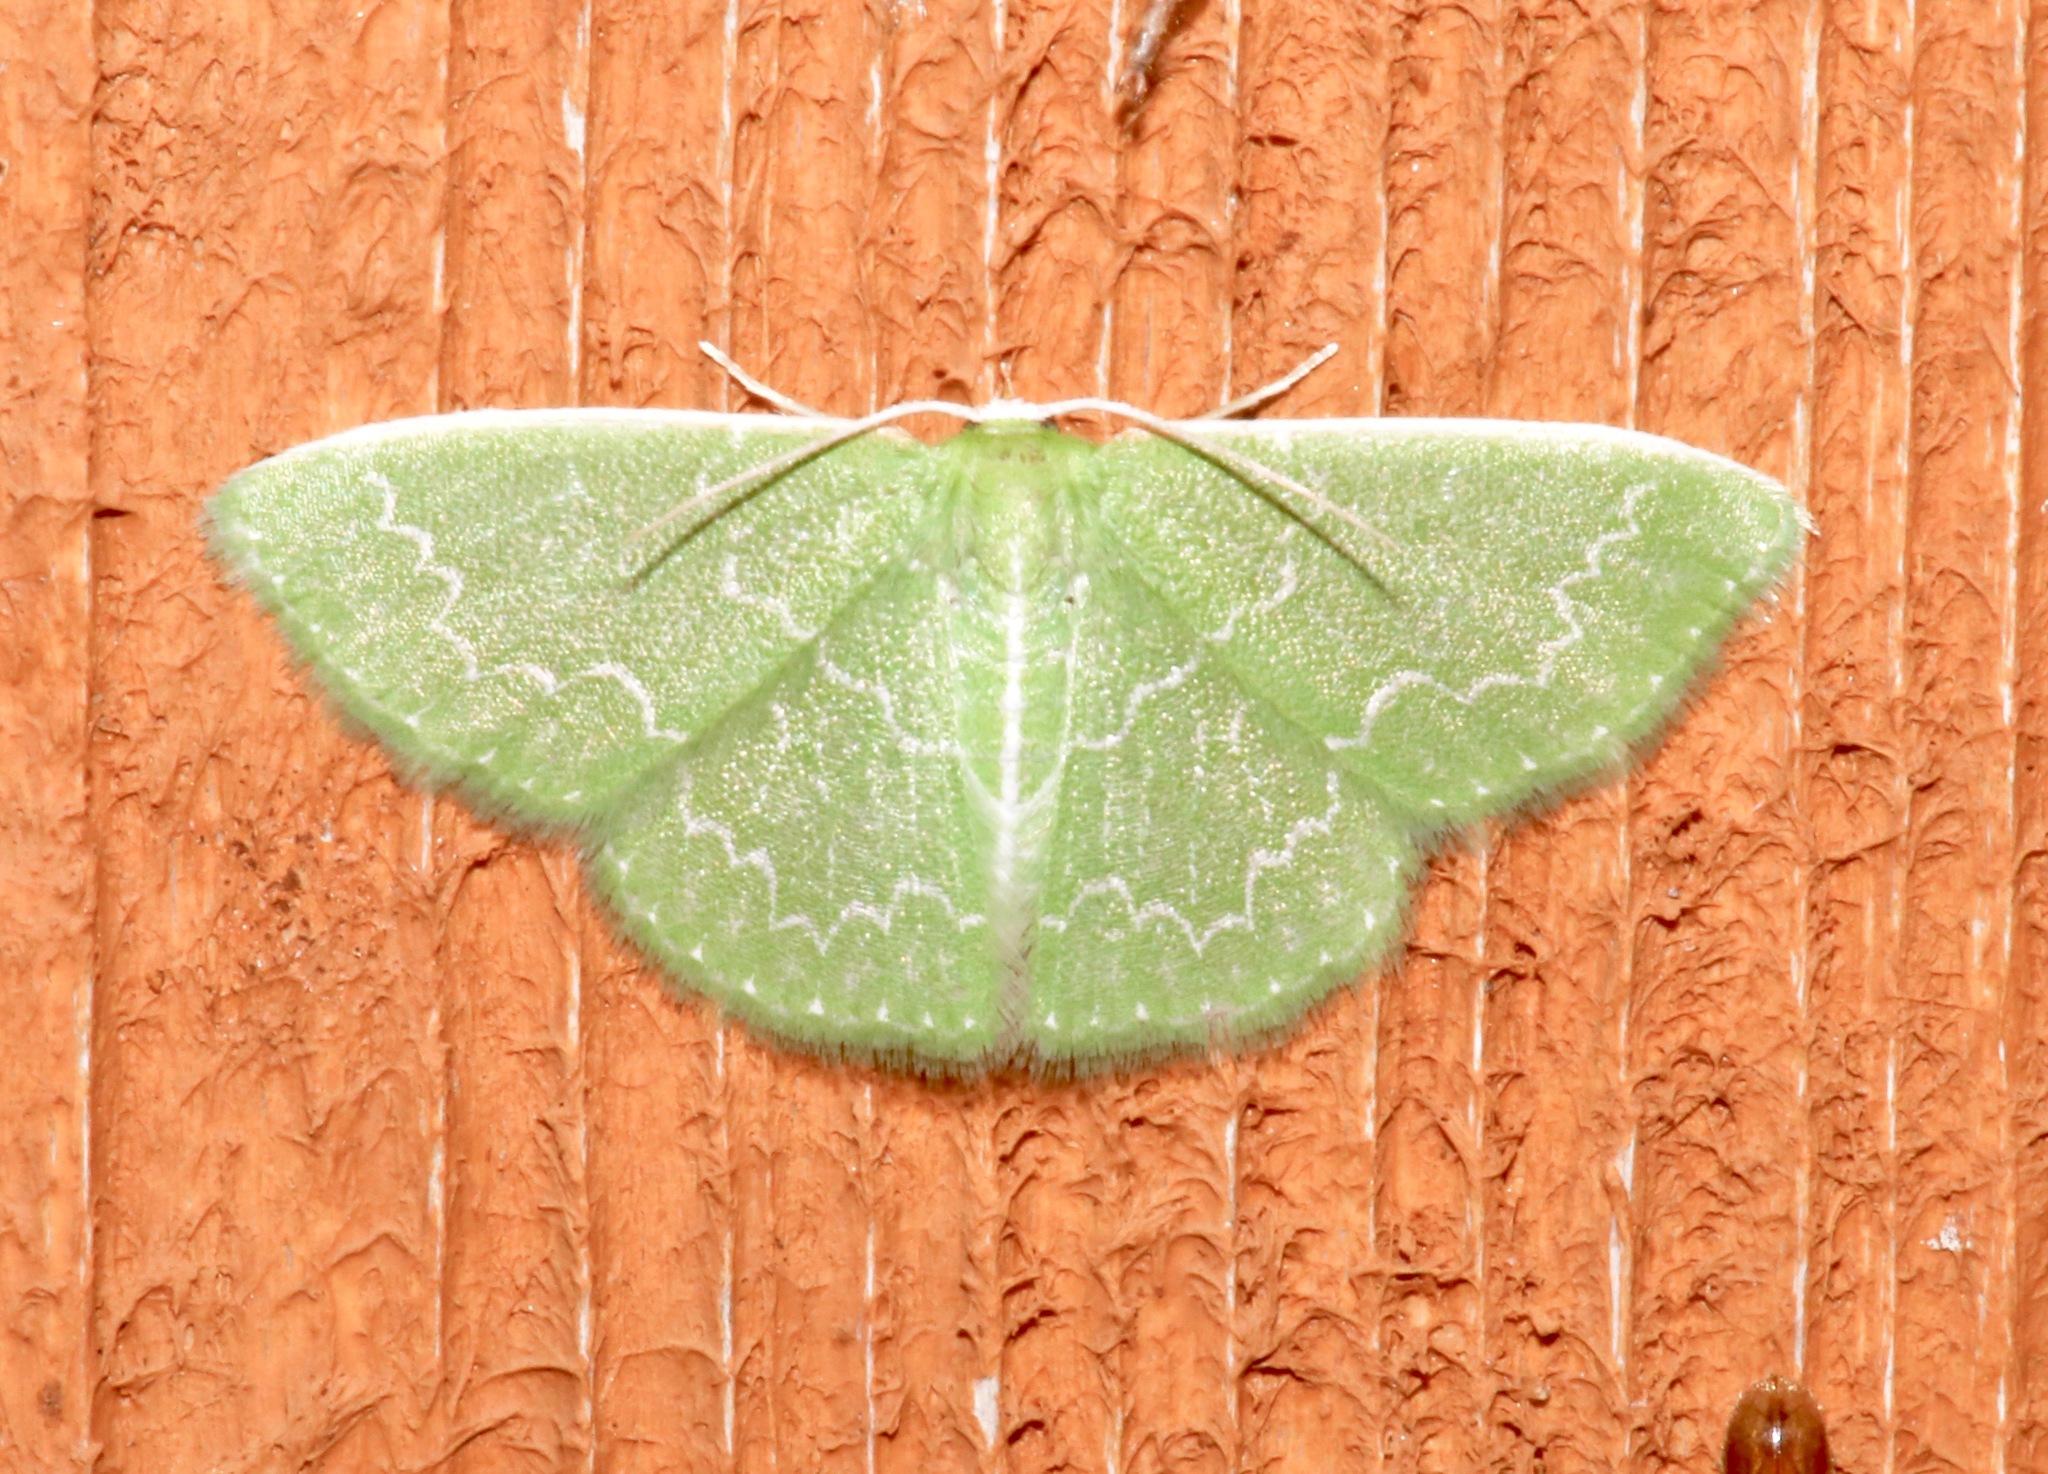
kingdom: Animalia
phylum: Arthropoda
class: Insecta
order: Lepidoptera
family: Geometridae
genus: Synchlora
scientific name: Synchlora frondaria
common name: Southern emerald
